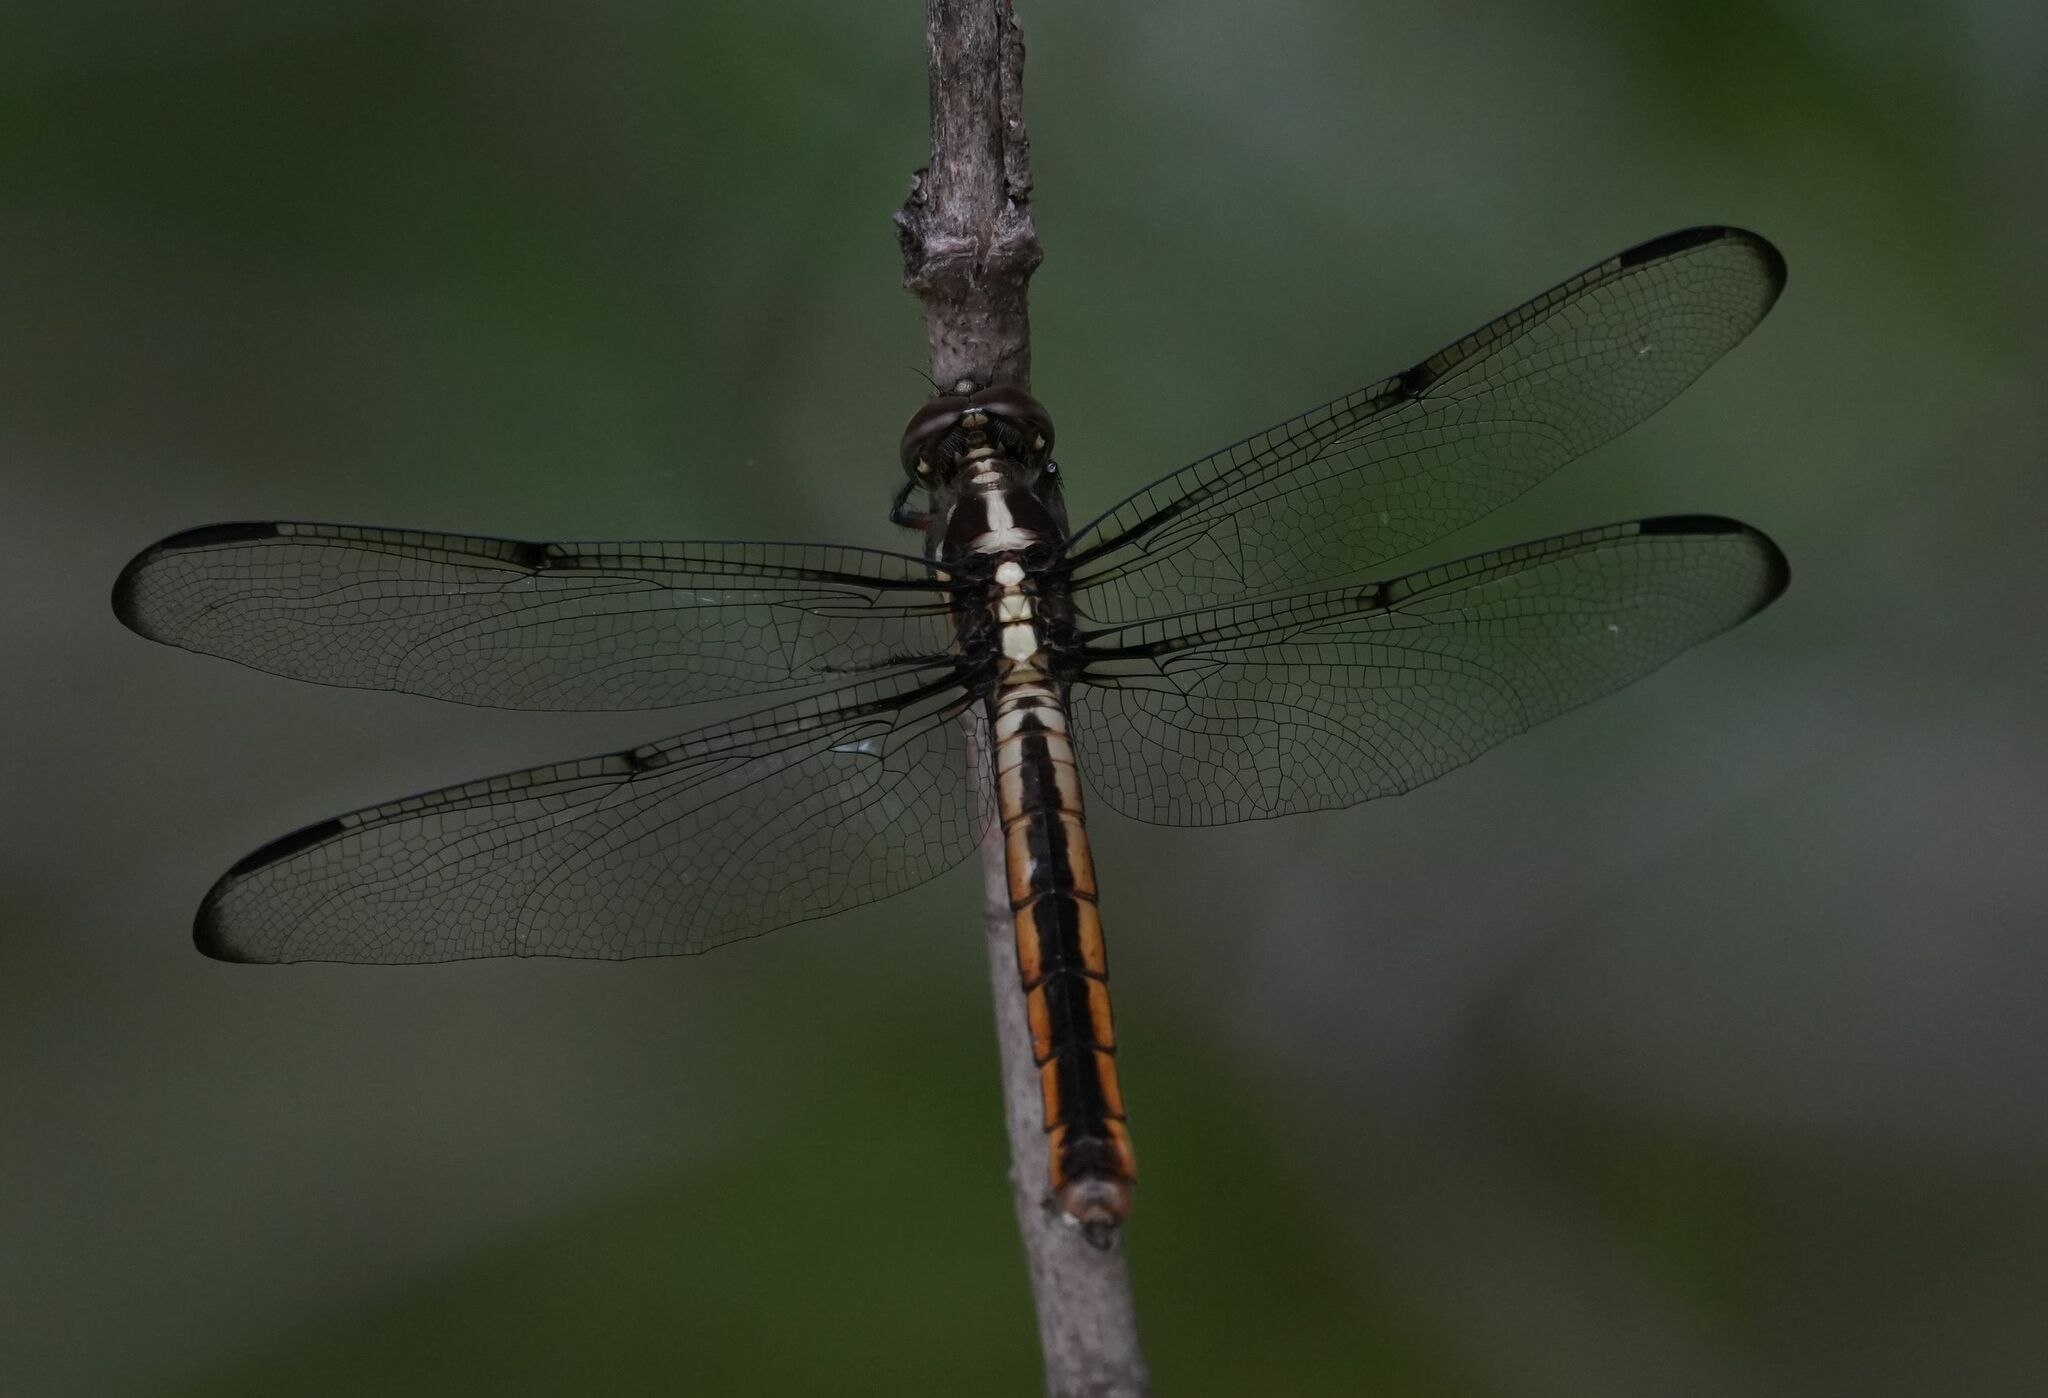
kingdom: Animalia
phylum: Arthropoda
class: Insecta
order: Odonata
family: Libellulidae
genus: Libellula
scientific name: Libellula incesta
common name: Slaty skimmer
